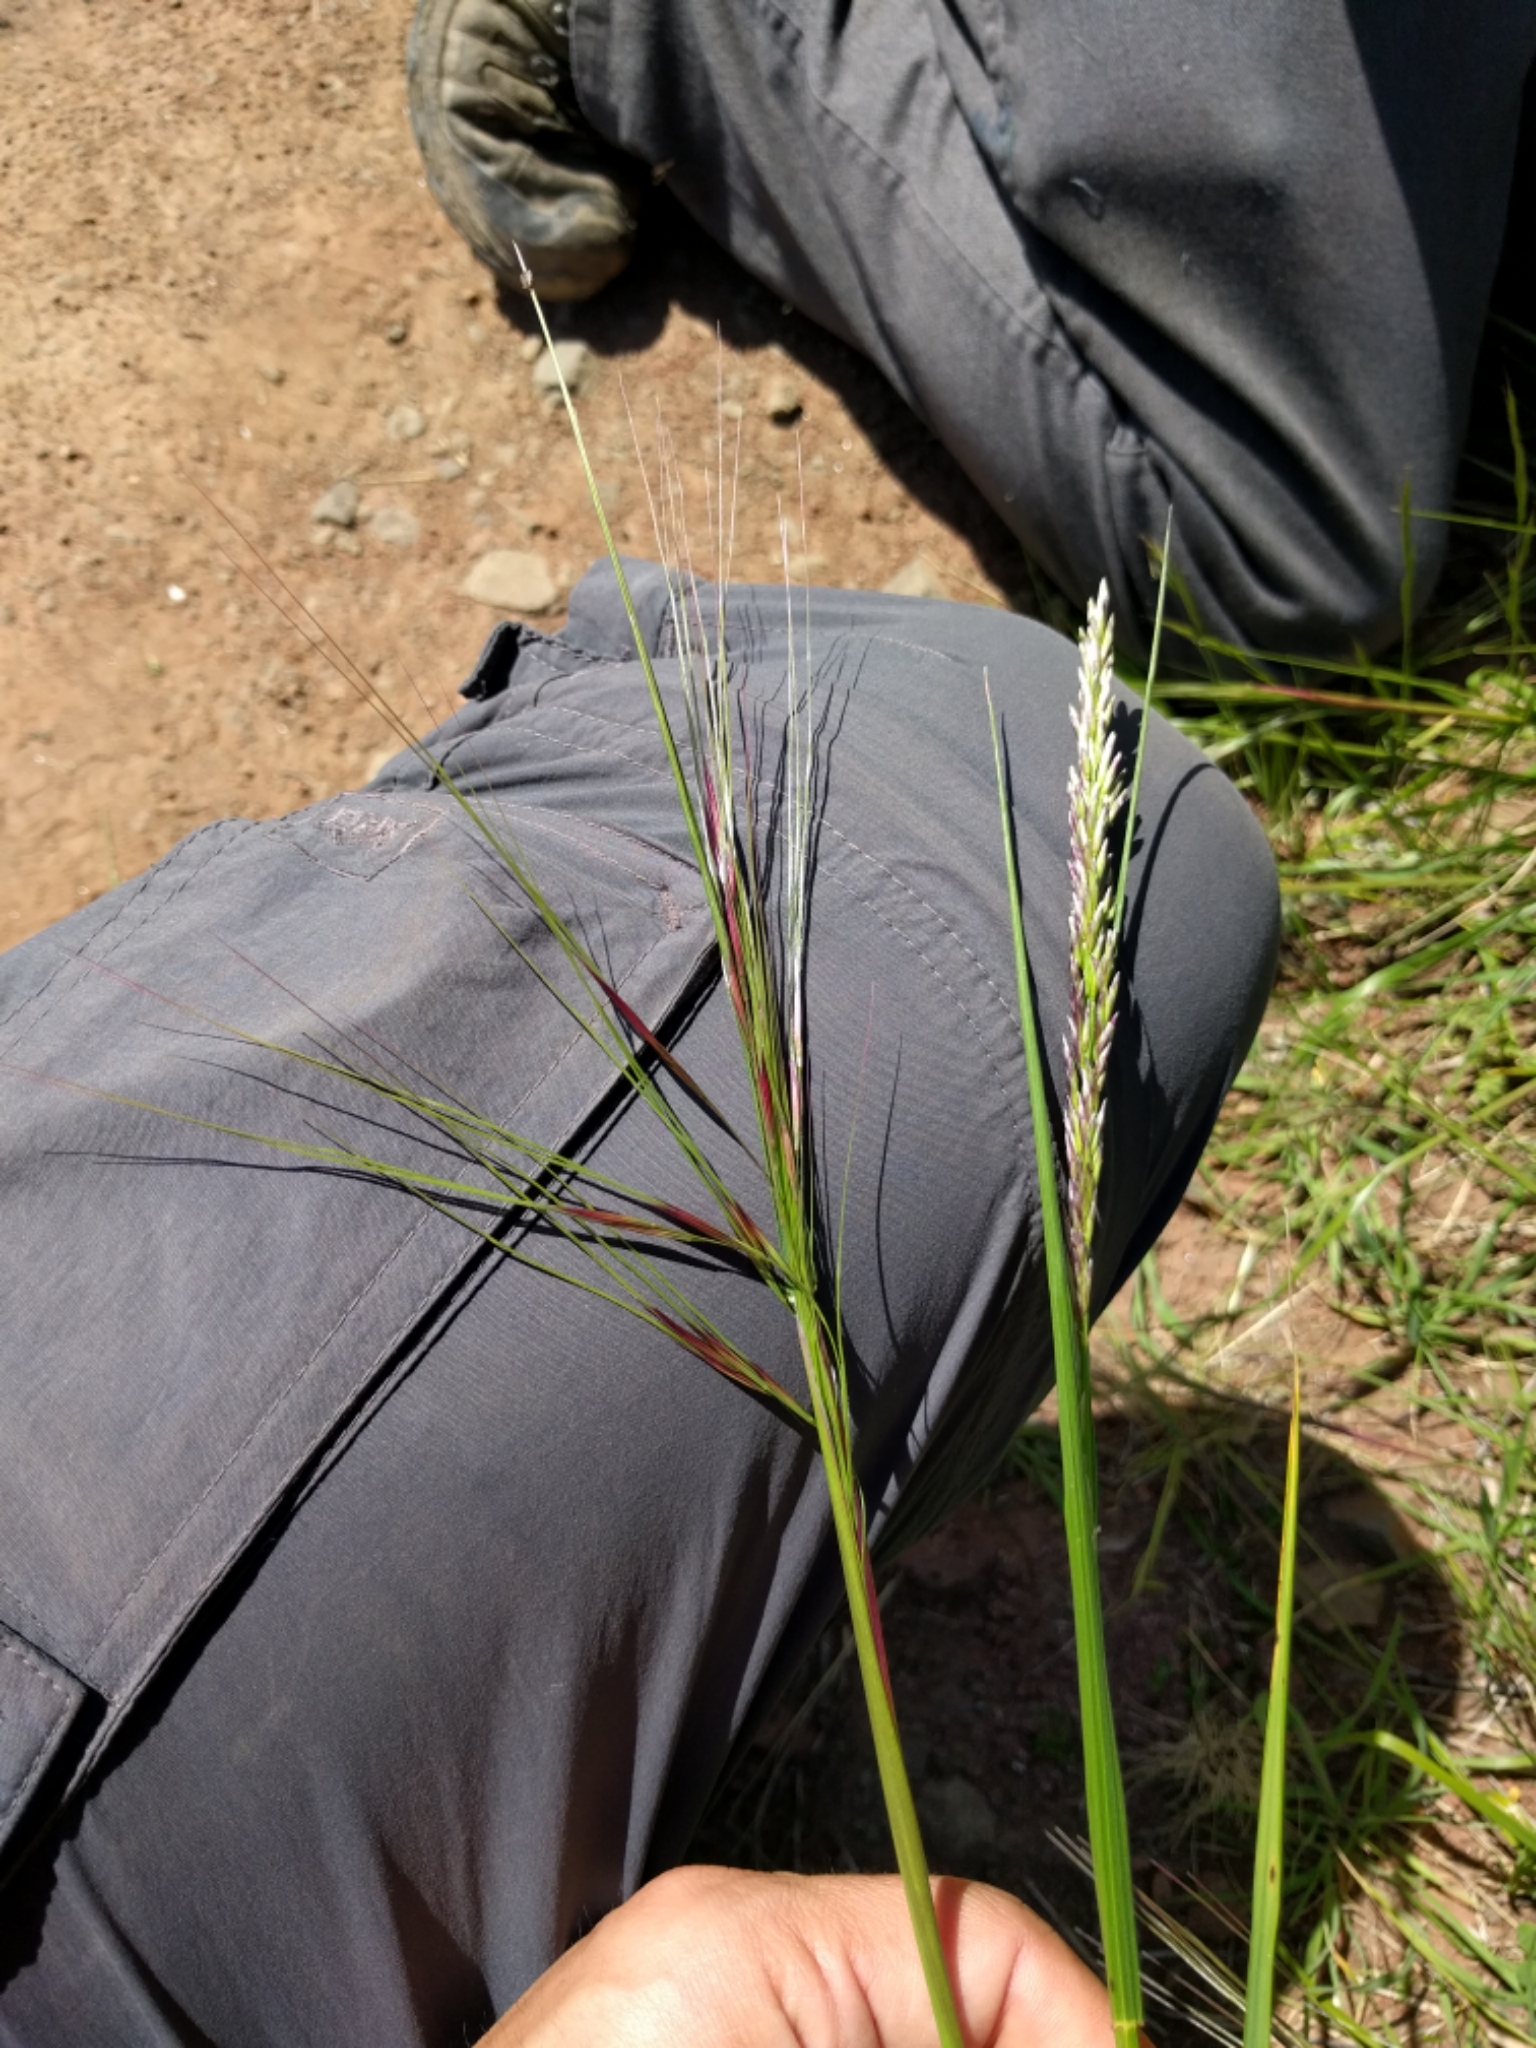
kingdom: Plantae
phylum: Tracheophyta
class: Liliopsida
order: Poales
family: Poaceae
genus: Nassella
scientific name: Nassella pulchra
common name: Purple needlegrass
